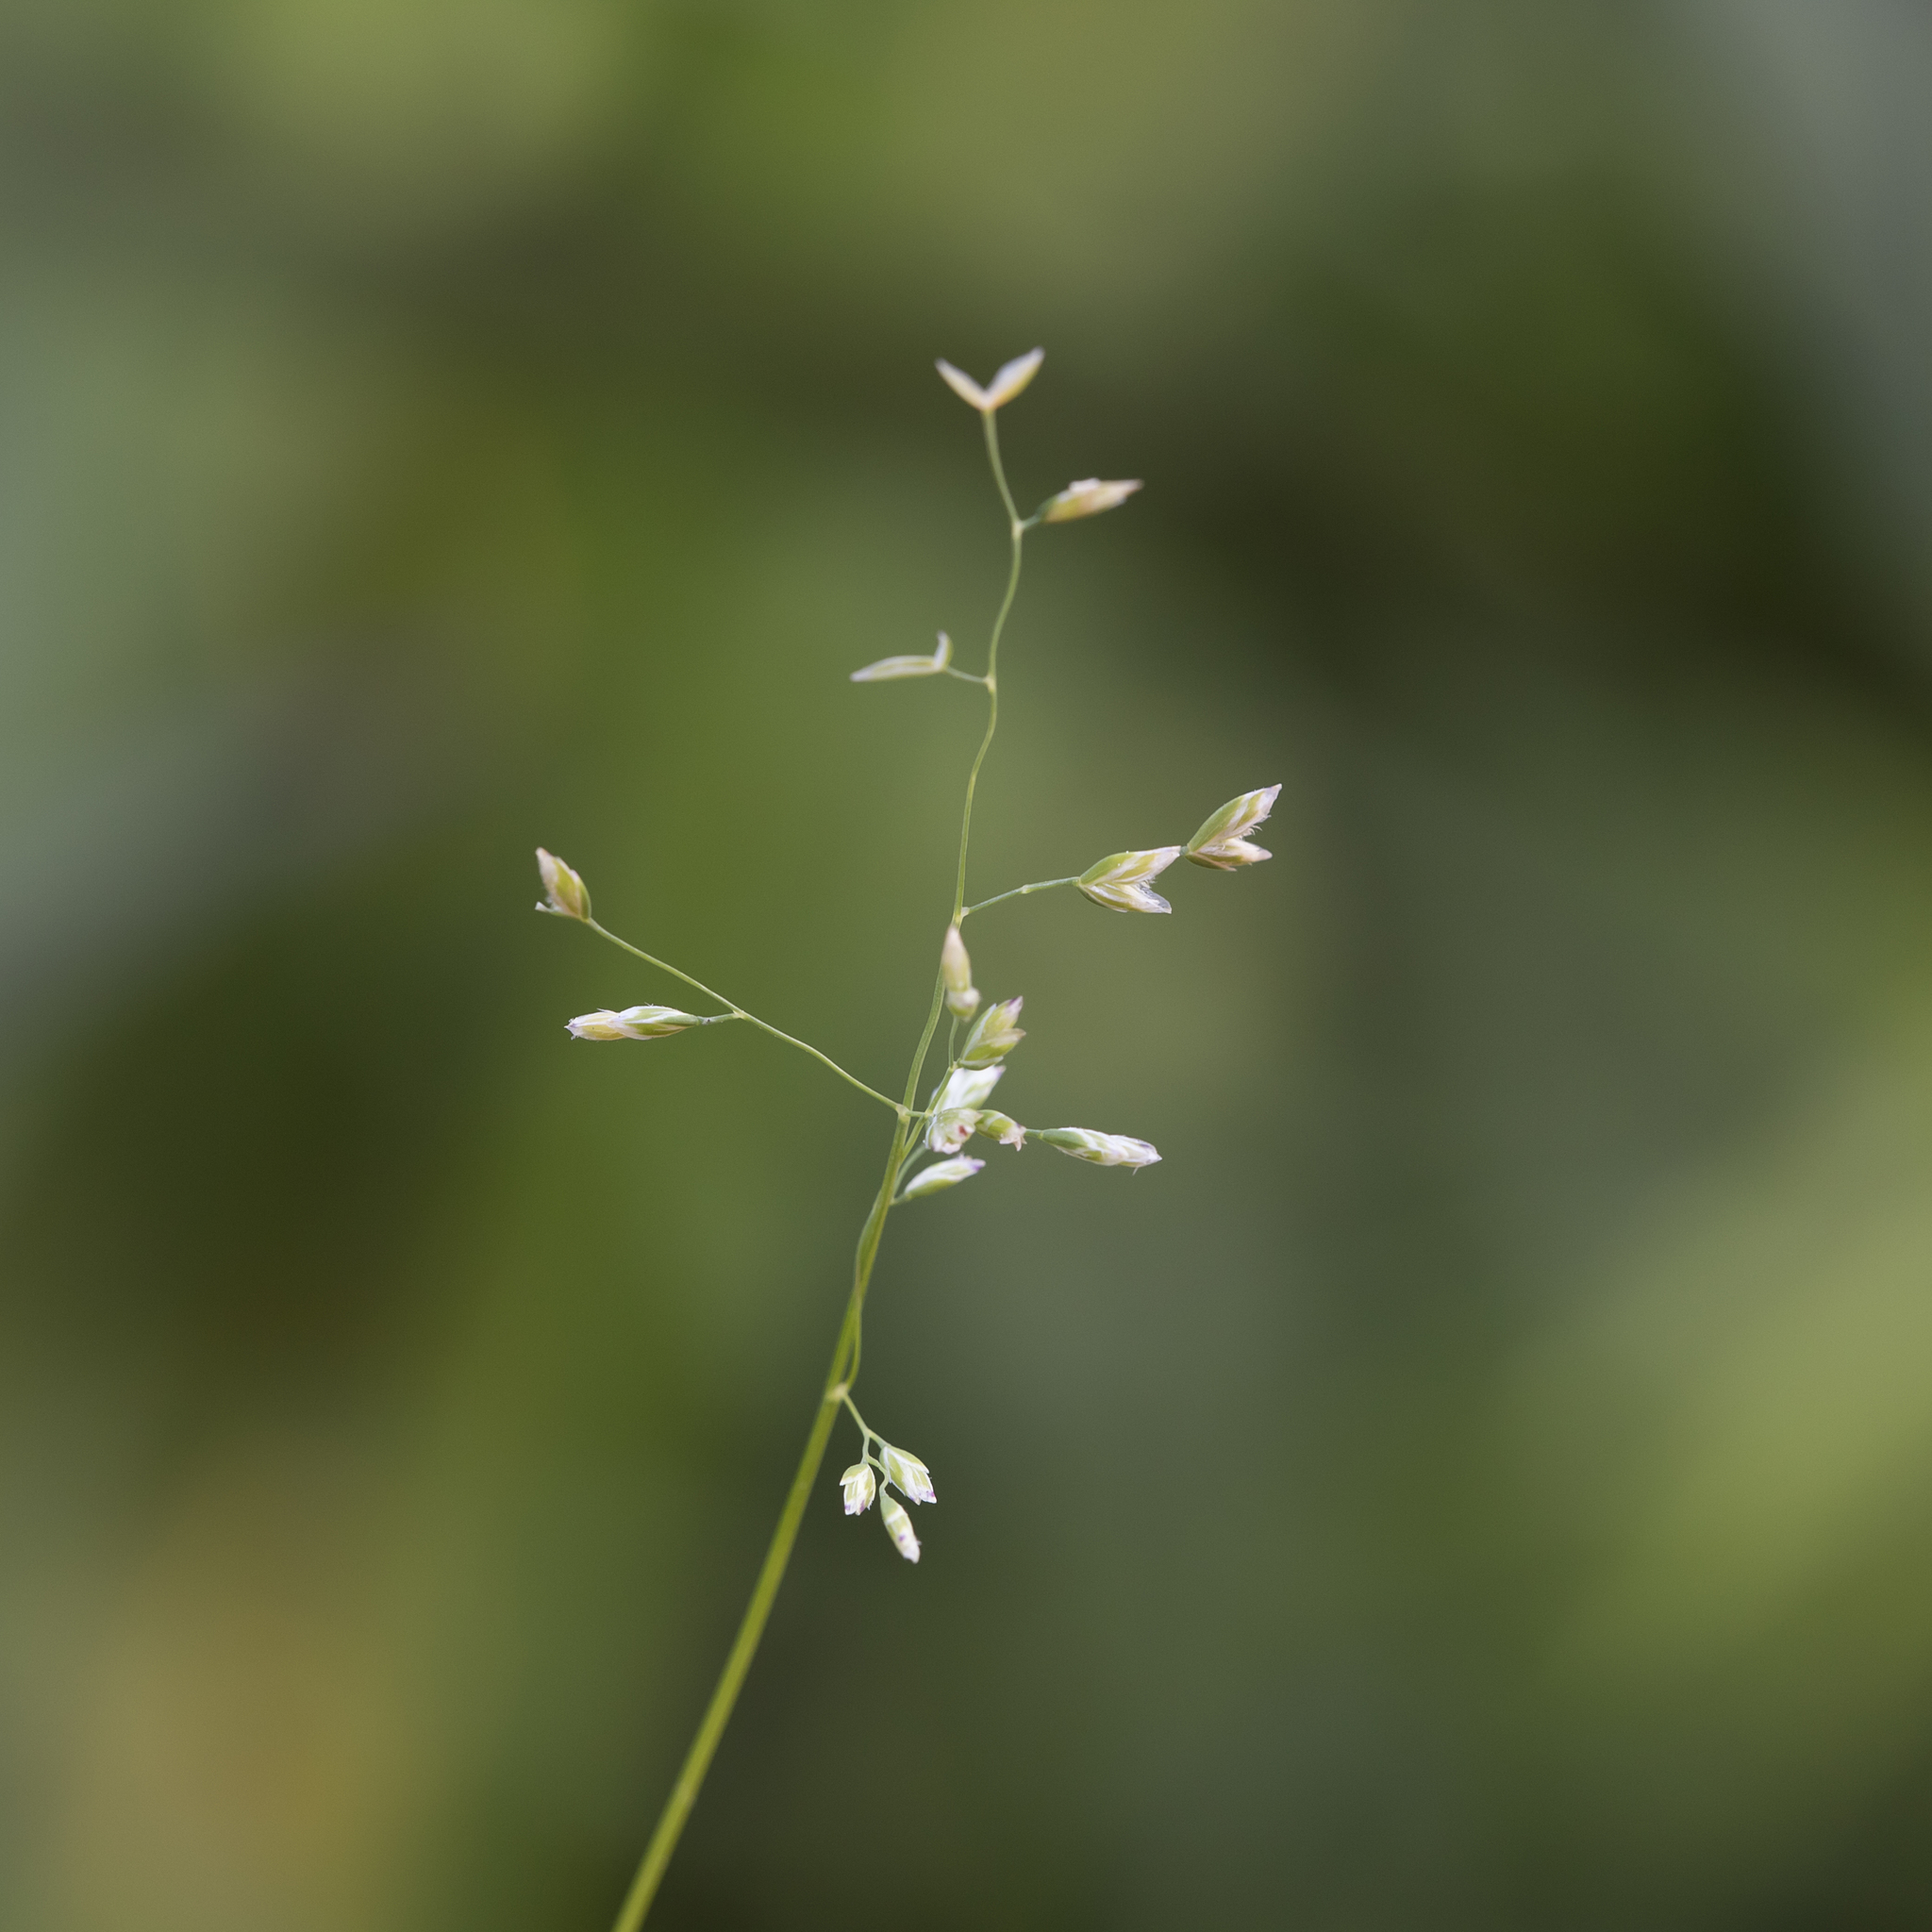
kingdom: Plantae
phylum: Tracheophyta
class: Liliopsida
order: Poales
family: Poaceae
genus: Poa
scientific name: Poa annua
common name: Annual bluegrass
